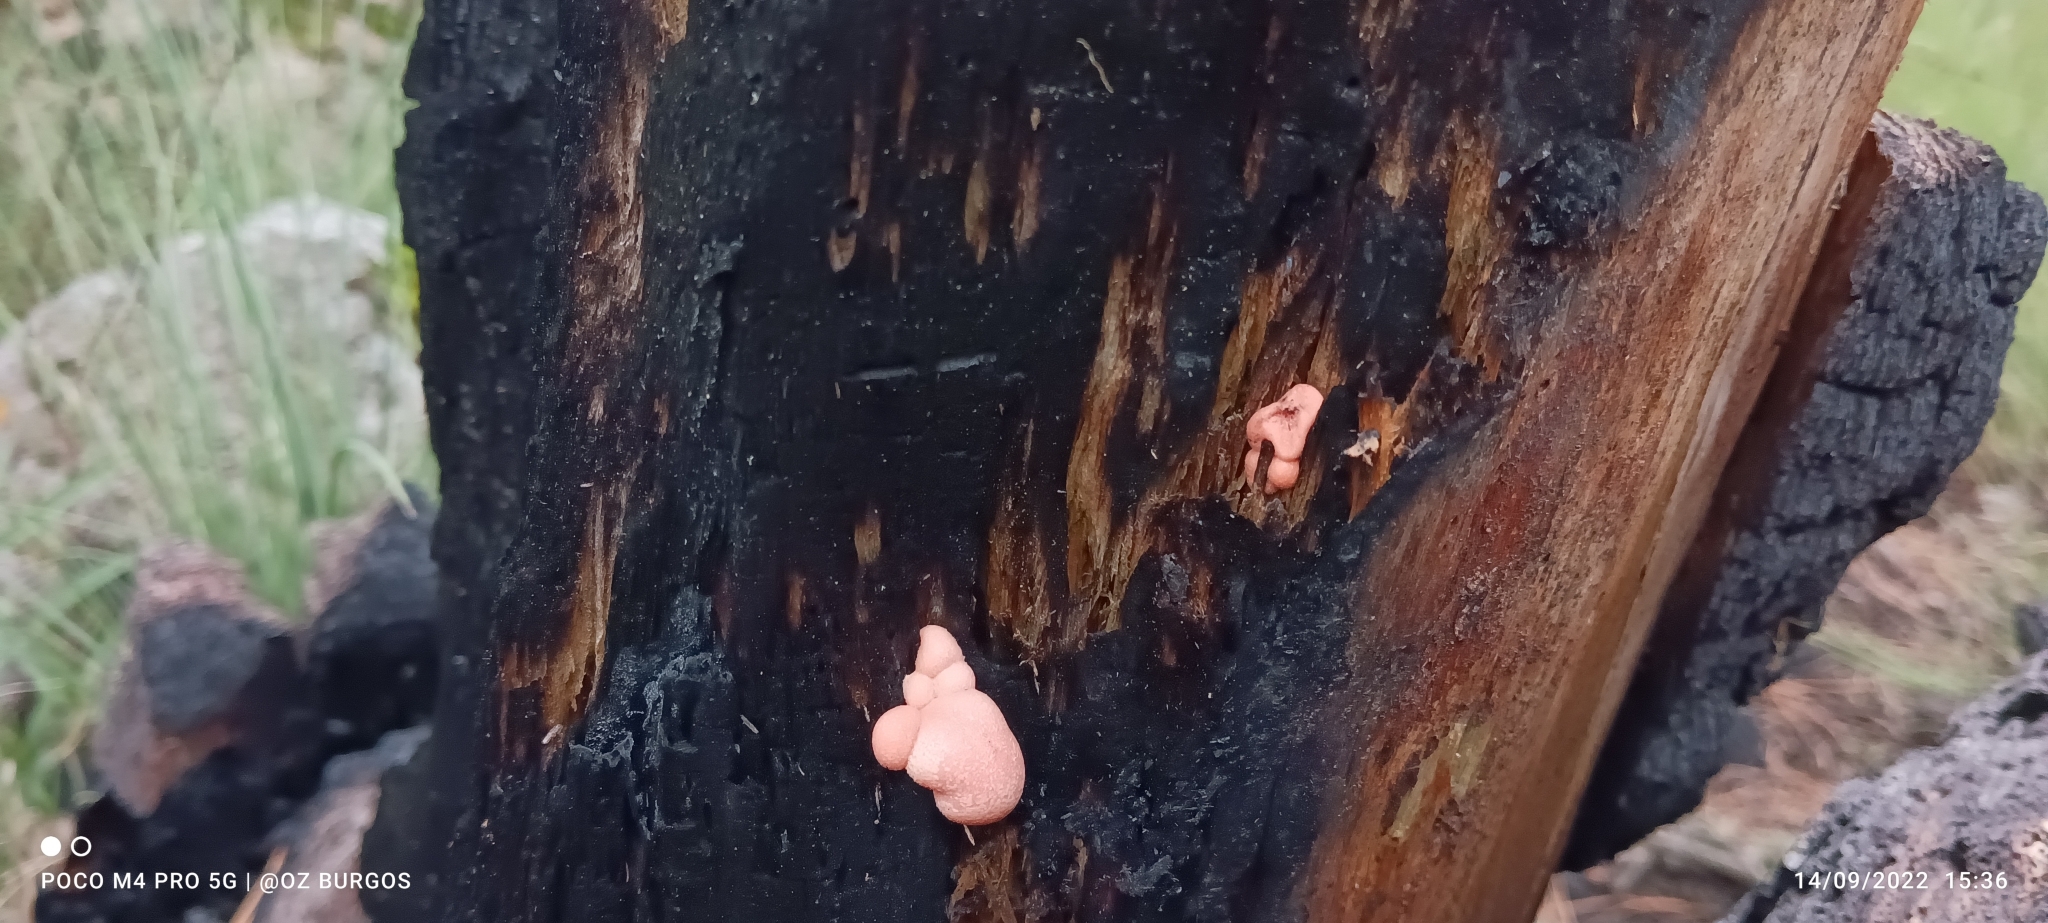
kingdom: Protozoa
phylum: Mycetozoa
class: Myxomycetes
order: Cribrariales
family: Tubiferaceae
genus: Lycogala
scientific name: Lycogala epidendrum
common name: Wolf's milk
